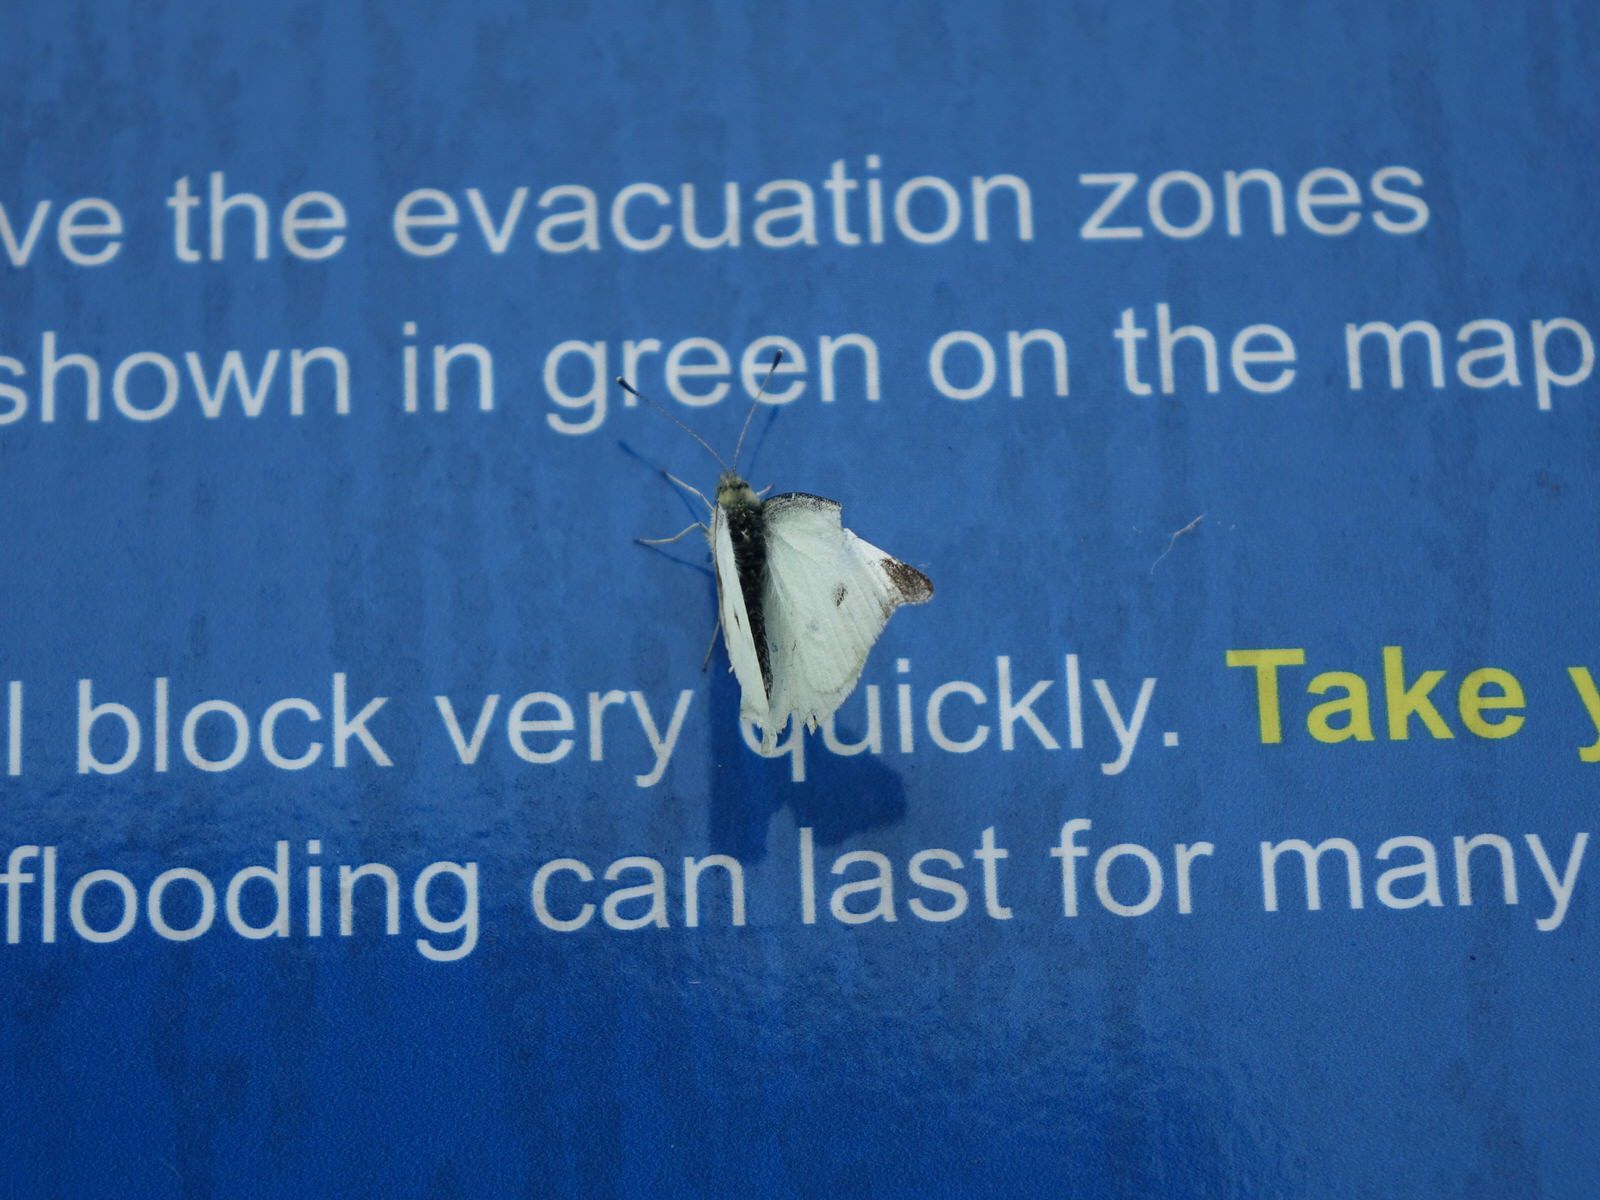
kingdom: Animalia
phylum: Arthropoda
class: Insecta
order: Lepidoptera
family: Pieridae
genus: Pieris
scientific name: Pieris rapae
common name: Small white
